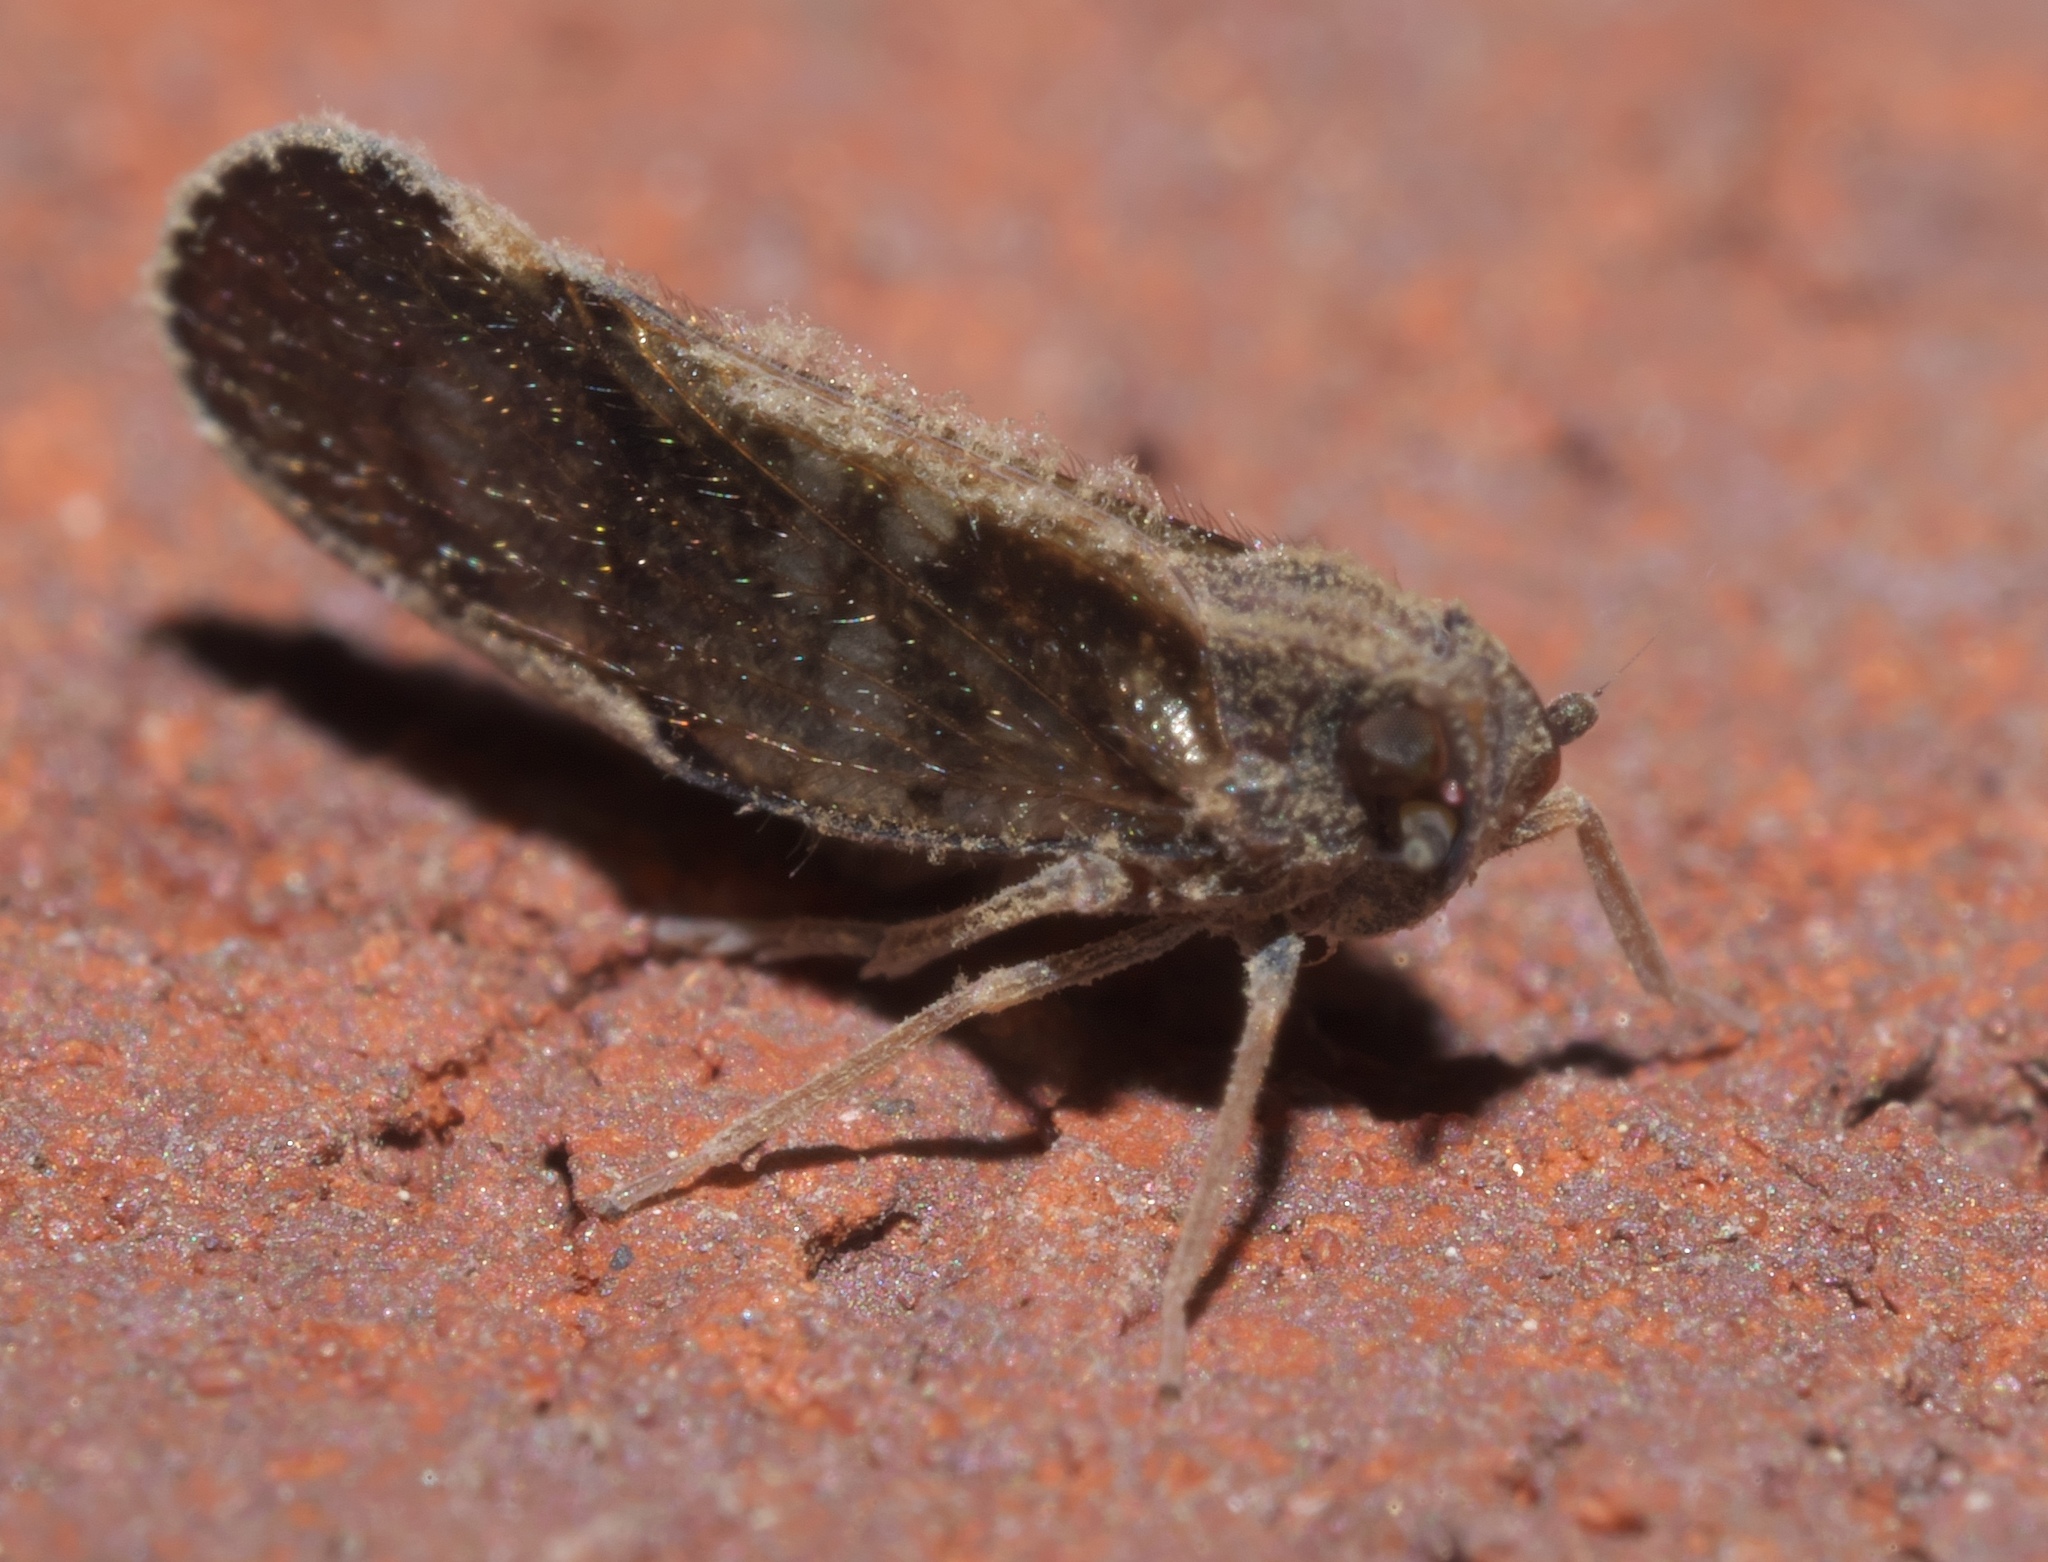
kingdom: Animalia
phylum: Arthropoda
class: Insecta
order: Hemiptera
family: Cixiidae
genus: Pintalia
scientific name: Pintalia vibex
